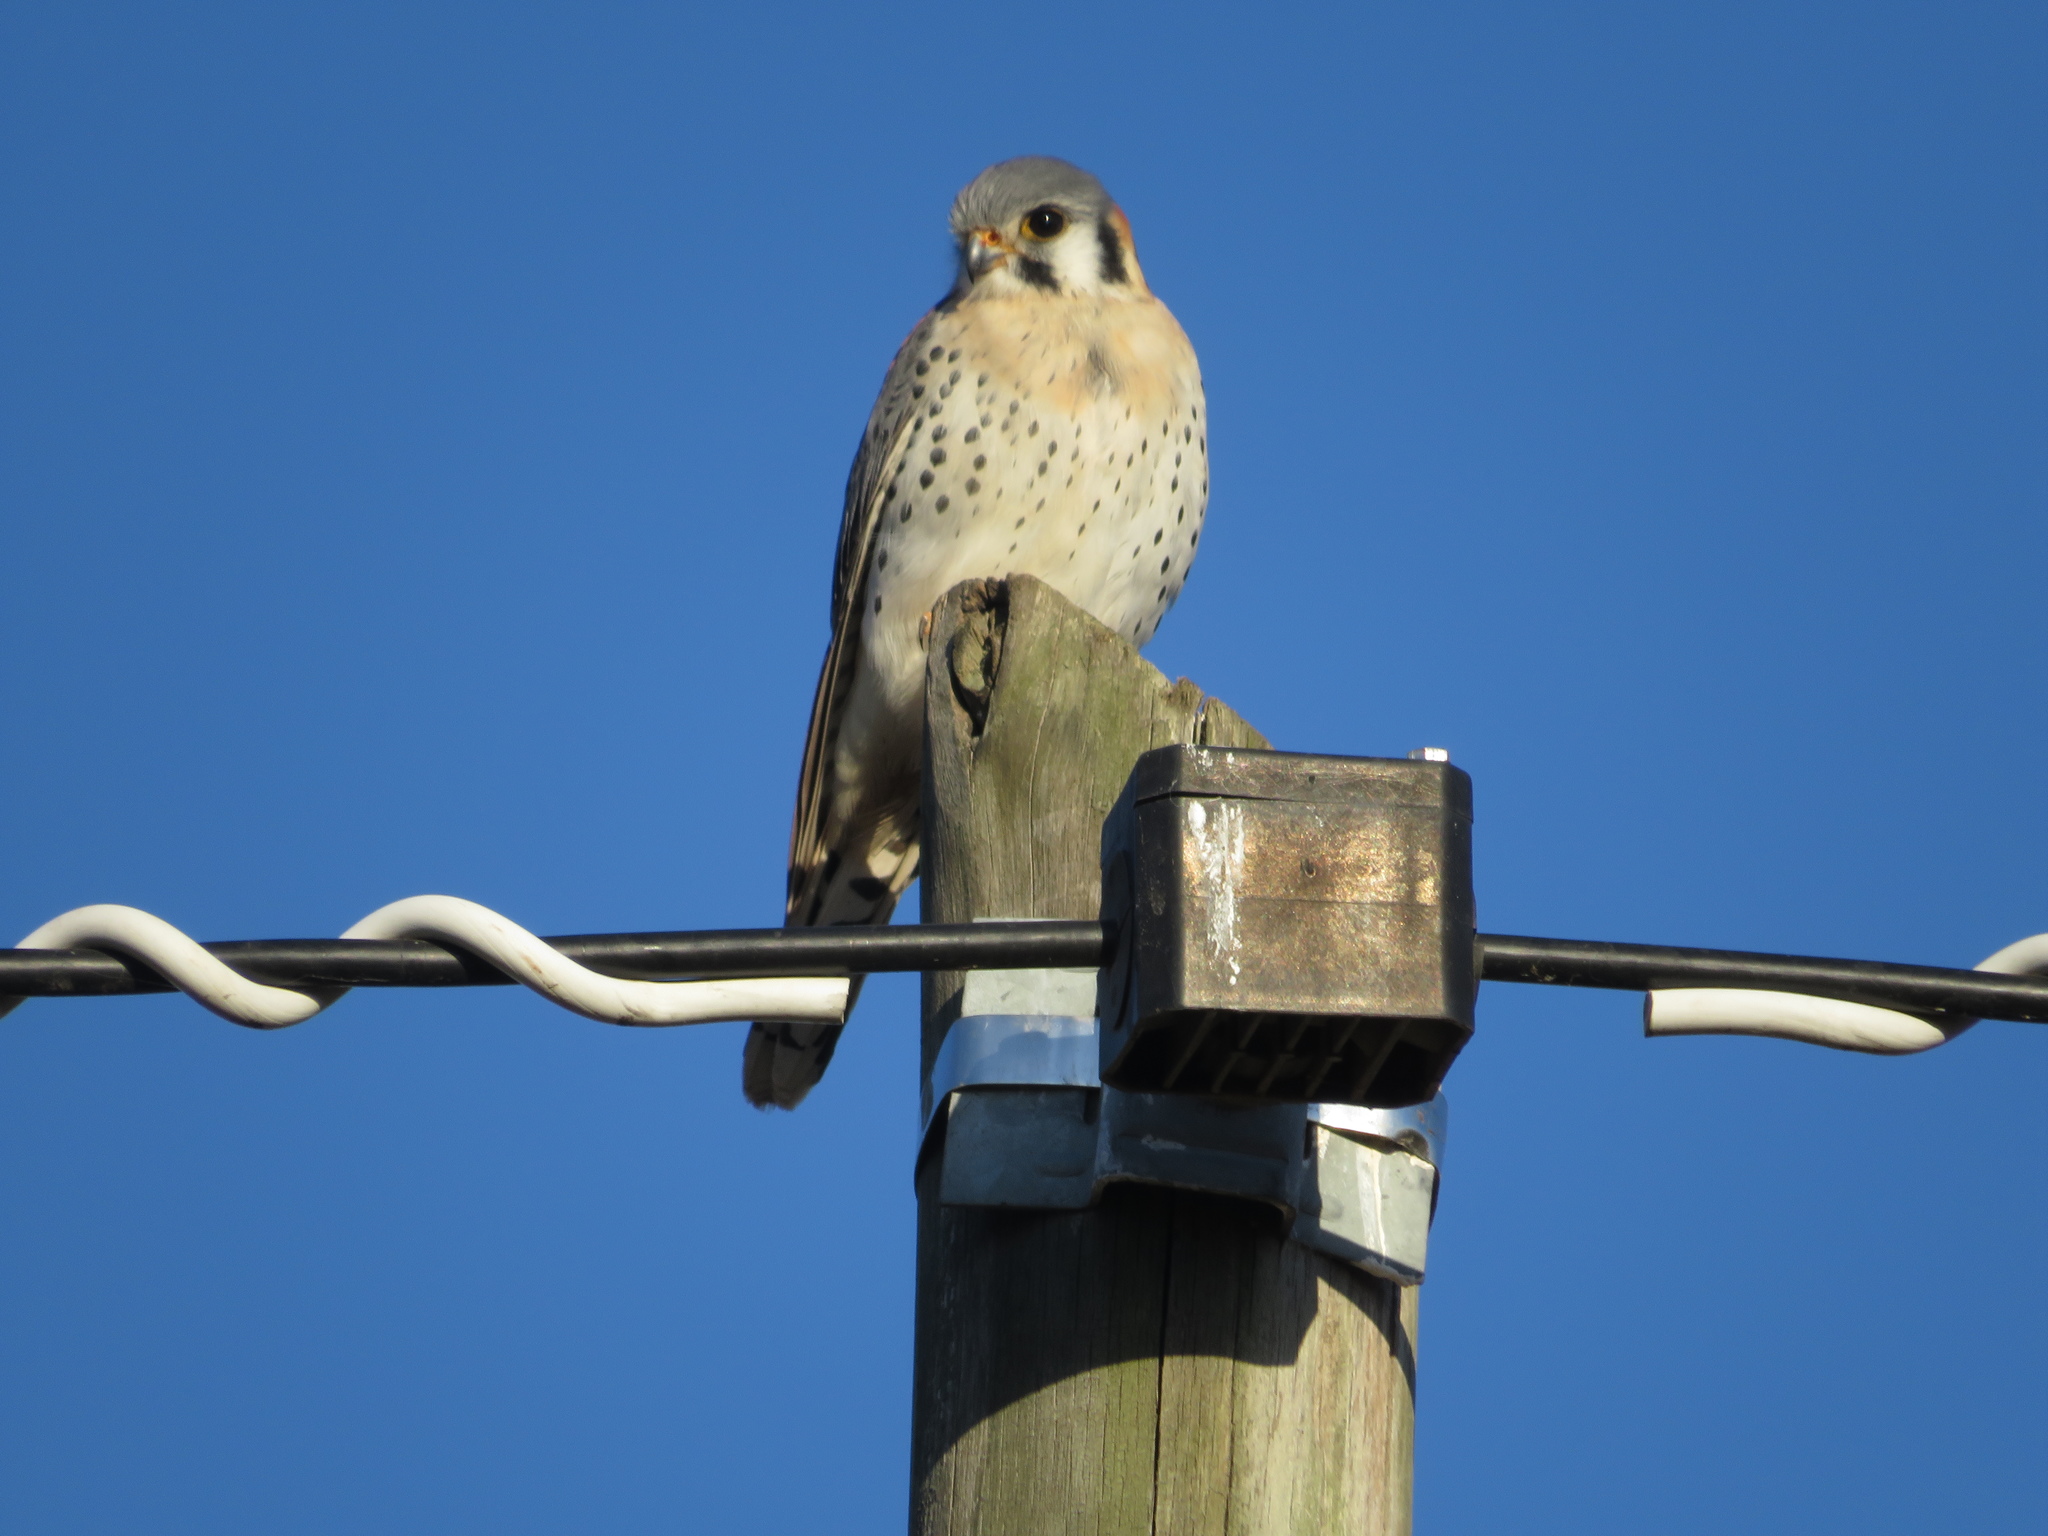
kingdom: Animalia
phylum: Chordata
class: Aves
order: Falconiformes
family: Falconidae
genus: Falco
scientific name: Falco sparverius
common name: American kestrel
